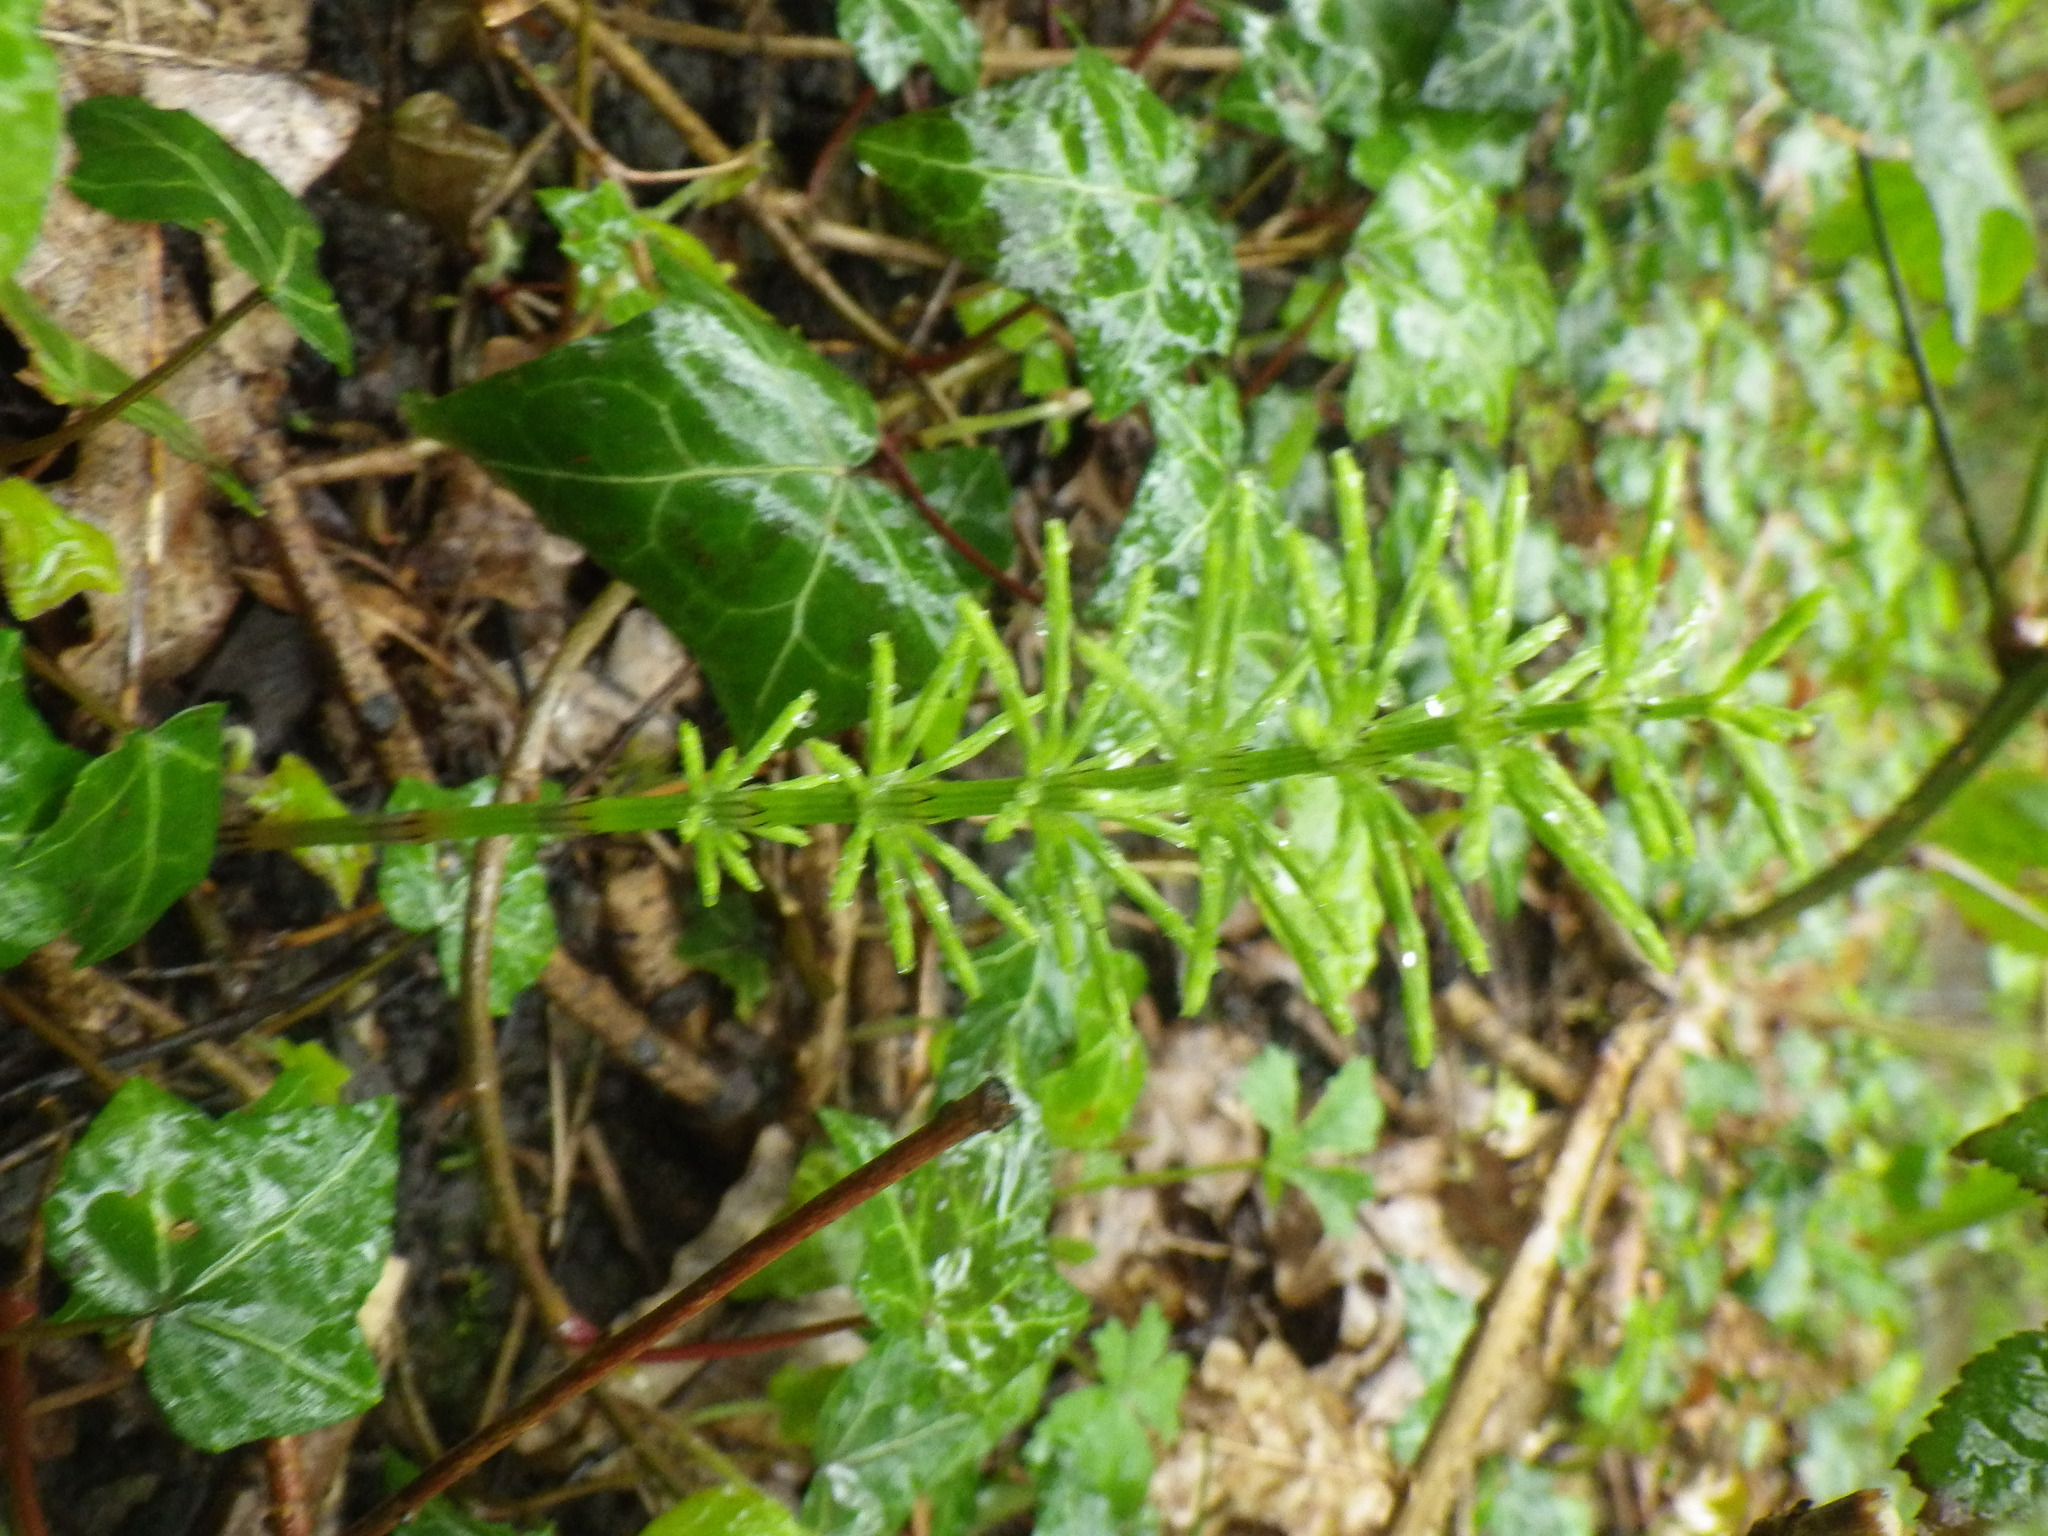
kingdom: Plantae
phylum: Tracheophyta
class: Polypodiopsida
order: Equisetales
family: Equisetaceae
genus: Equisetum
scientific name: Equisetum arvense
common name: Field horsetail
